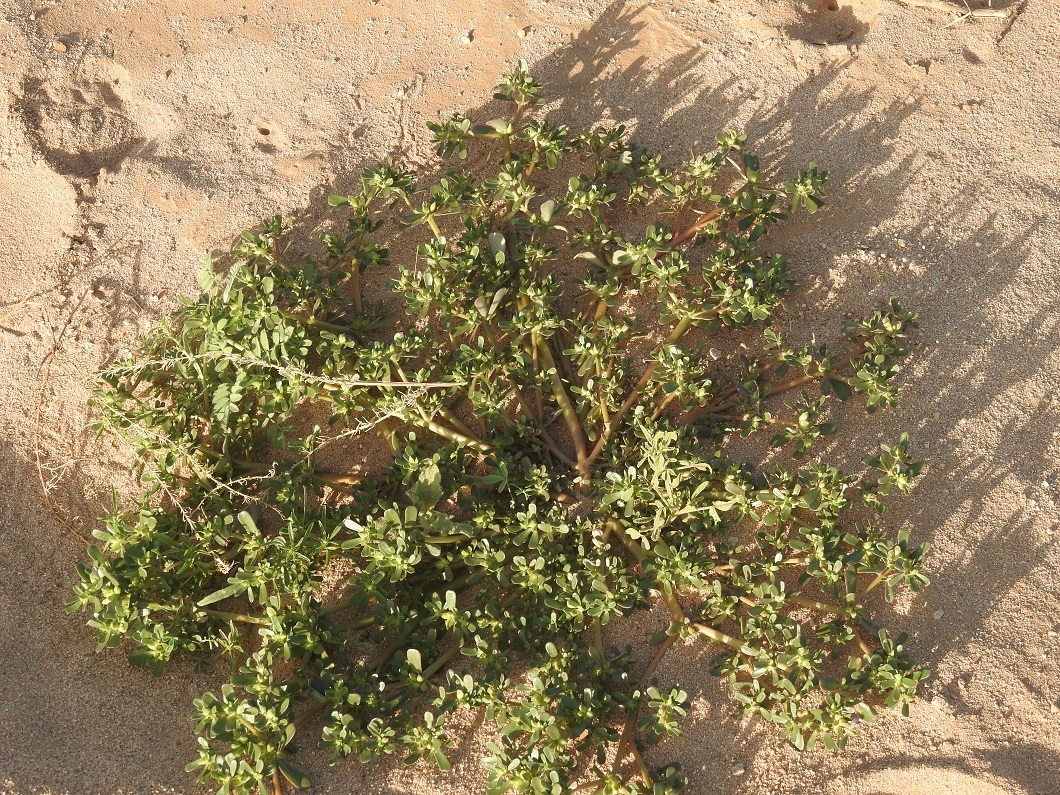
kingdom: Plantae
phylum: Tracheophyta
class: Magnoliopsida
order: Caryophyllales
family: Portulacaceae
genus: Portulaca
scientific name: Portulaca oleracea
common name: Common purslane
